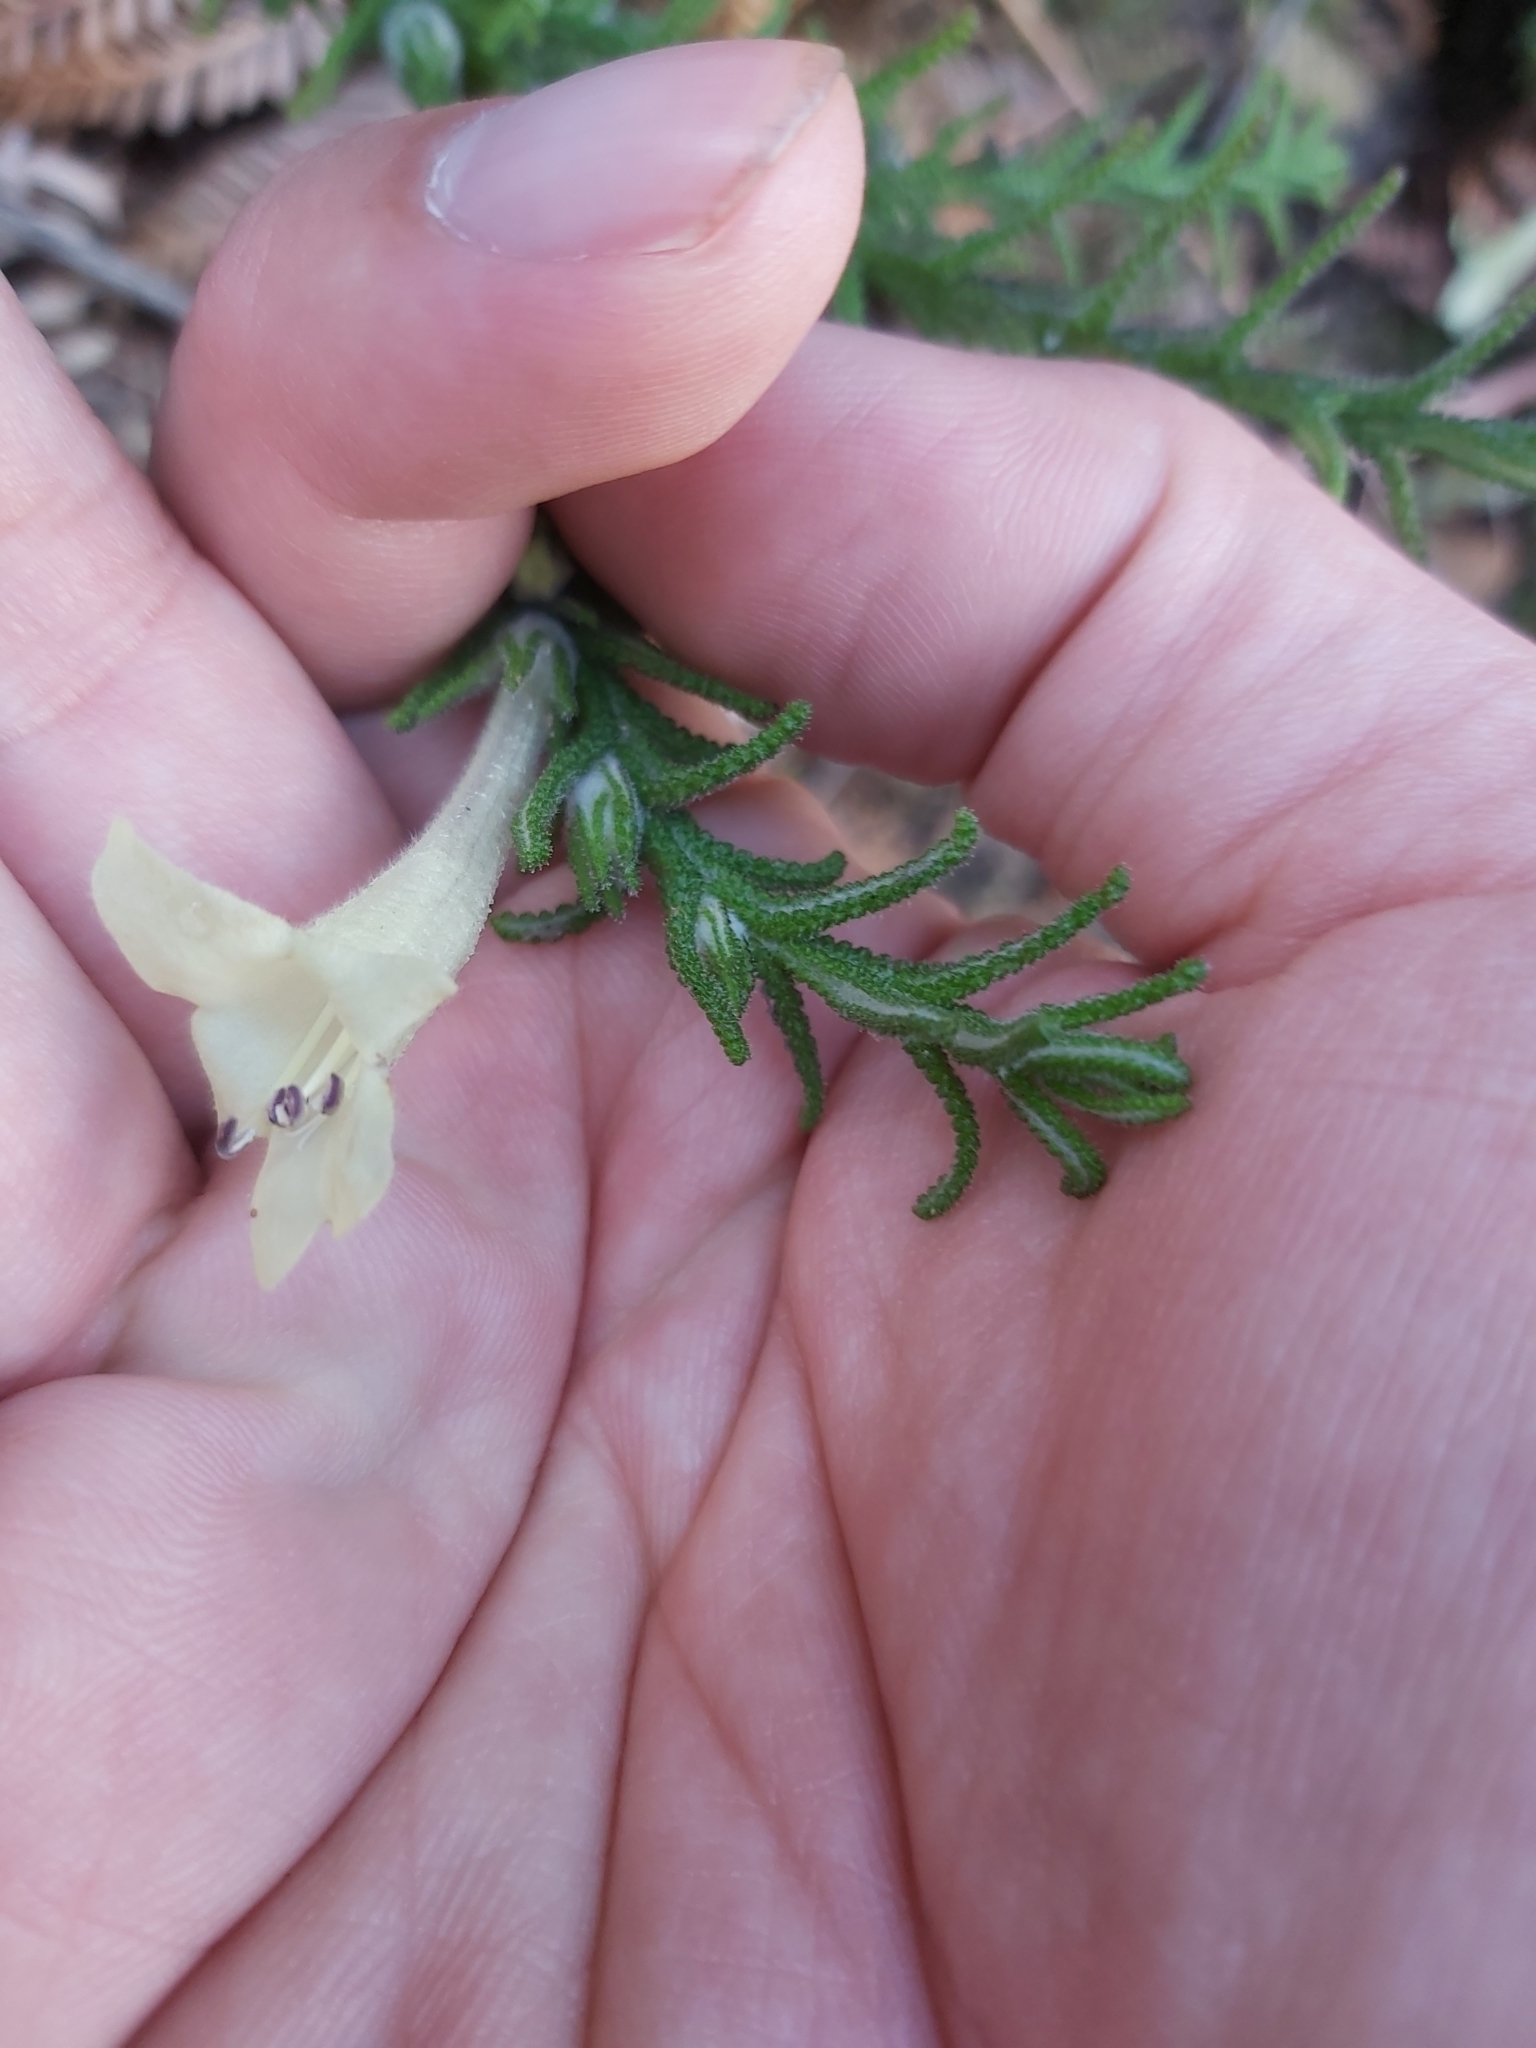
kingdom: Plantae
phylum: Tracheophyta
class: Magnoliopsida
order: Lamiales
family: Lamiaceae
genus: Chloanthes
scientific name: Chloanthes stoechadis
